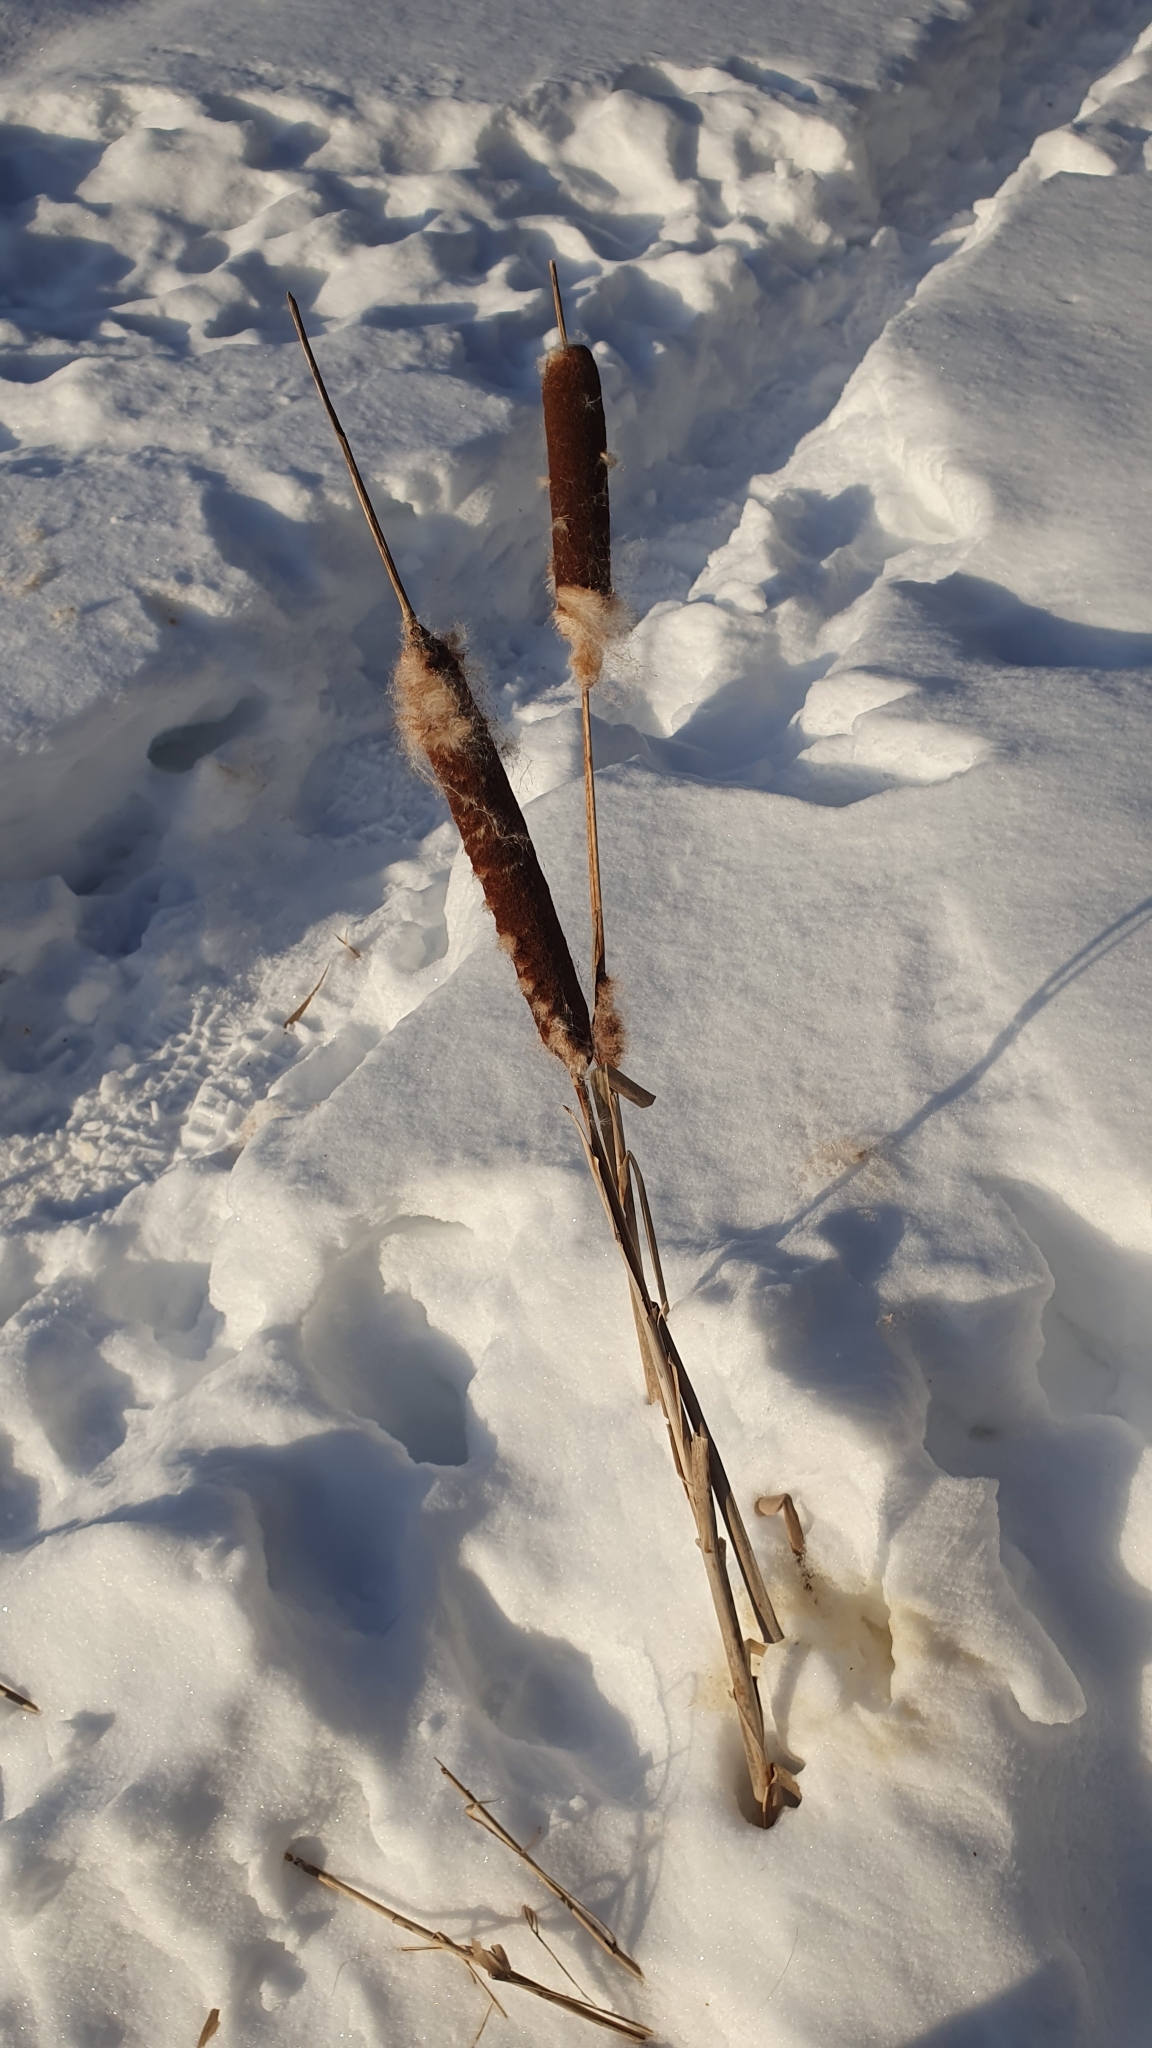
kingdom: Plantae
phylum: Tracheophyta
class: Liliopsida
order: Poales
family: Typhaceae
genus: Typha
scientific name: Typha latifolia
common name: Broadleaf cattail
